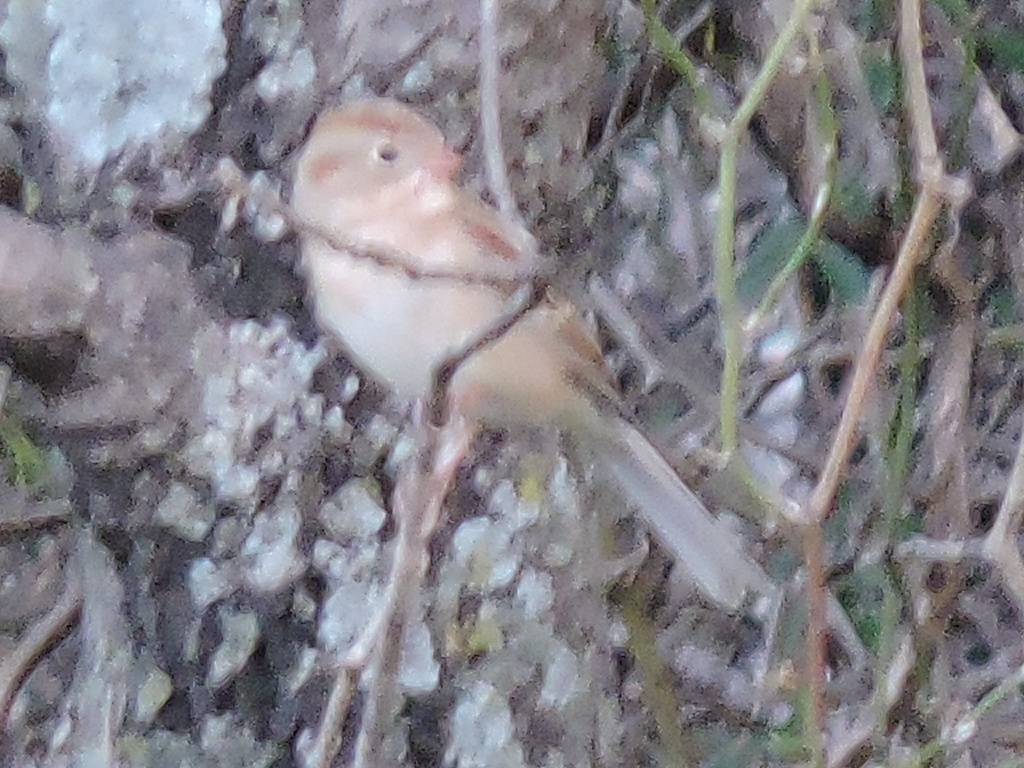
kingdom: Animalia
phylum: Chordata
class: Aves
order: Passeriformes
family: Passerellidae
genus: Spizella
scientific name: Spizella pusilla
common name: Field sparrow
